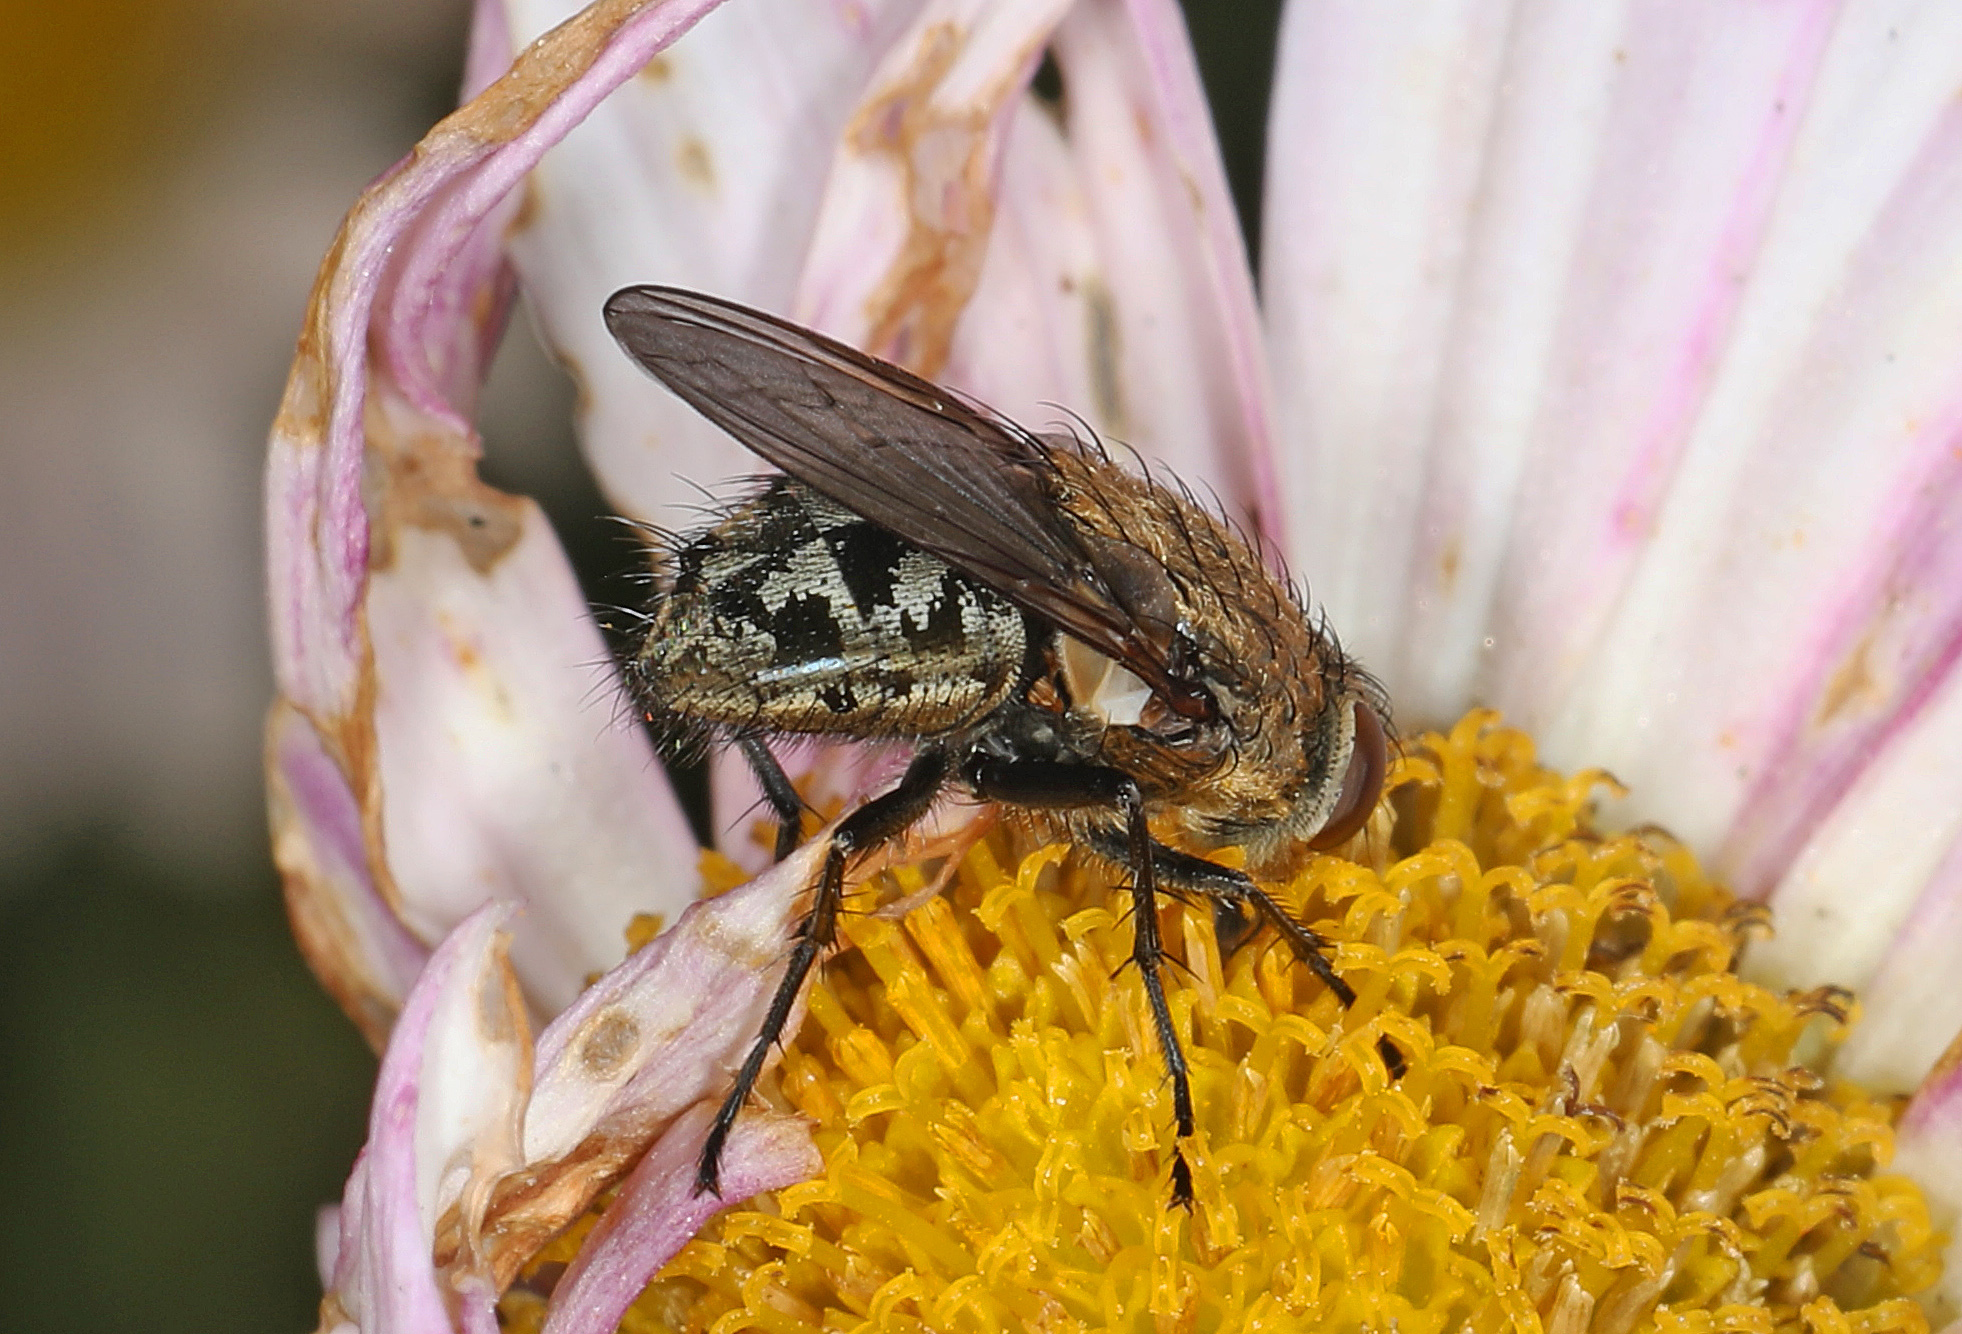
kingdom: Animalia
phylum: Arthropoda
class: Insecta
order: Diptera
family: Polleniidae
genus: Pollenia
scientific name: Pollenia
